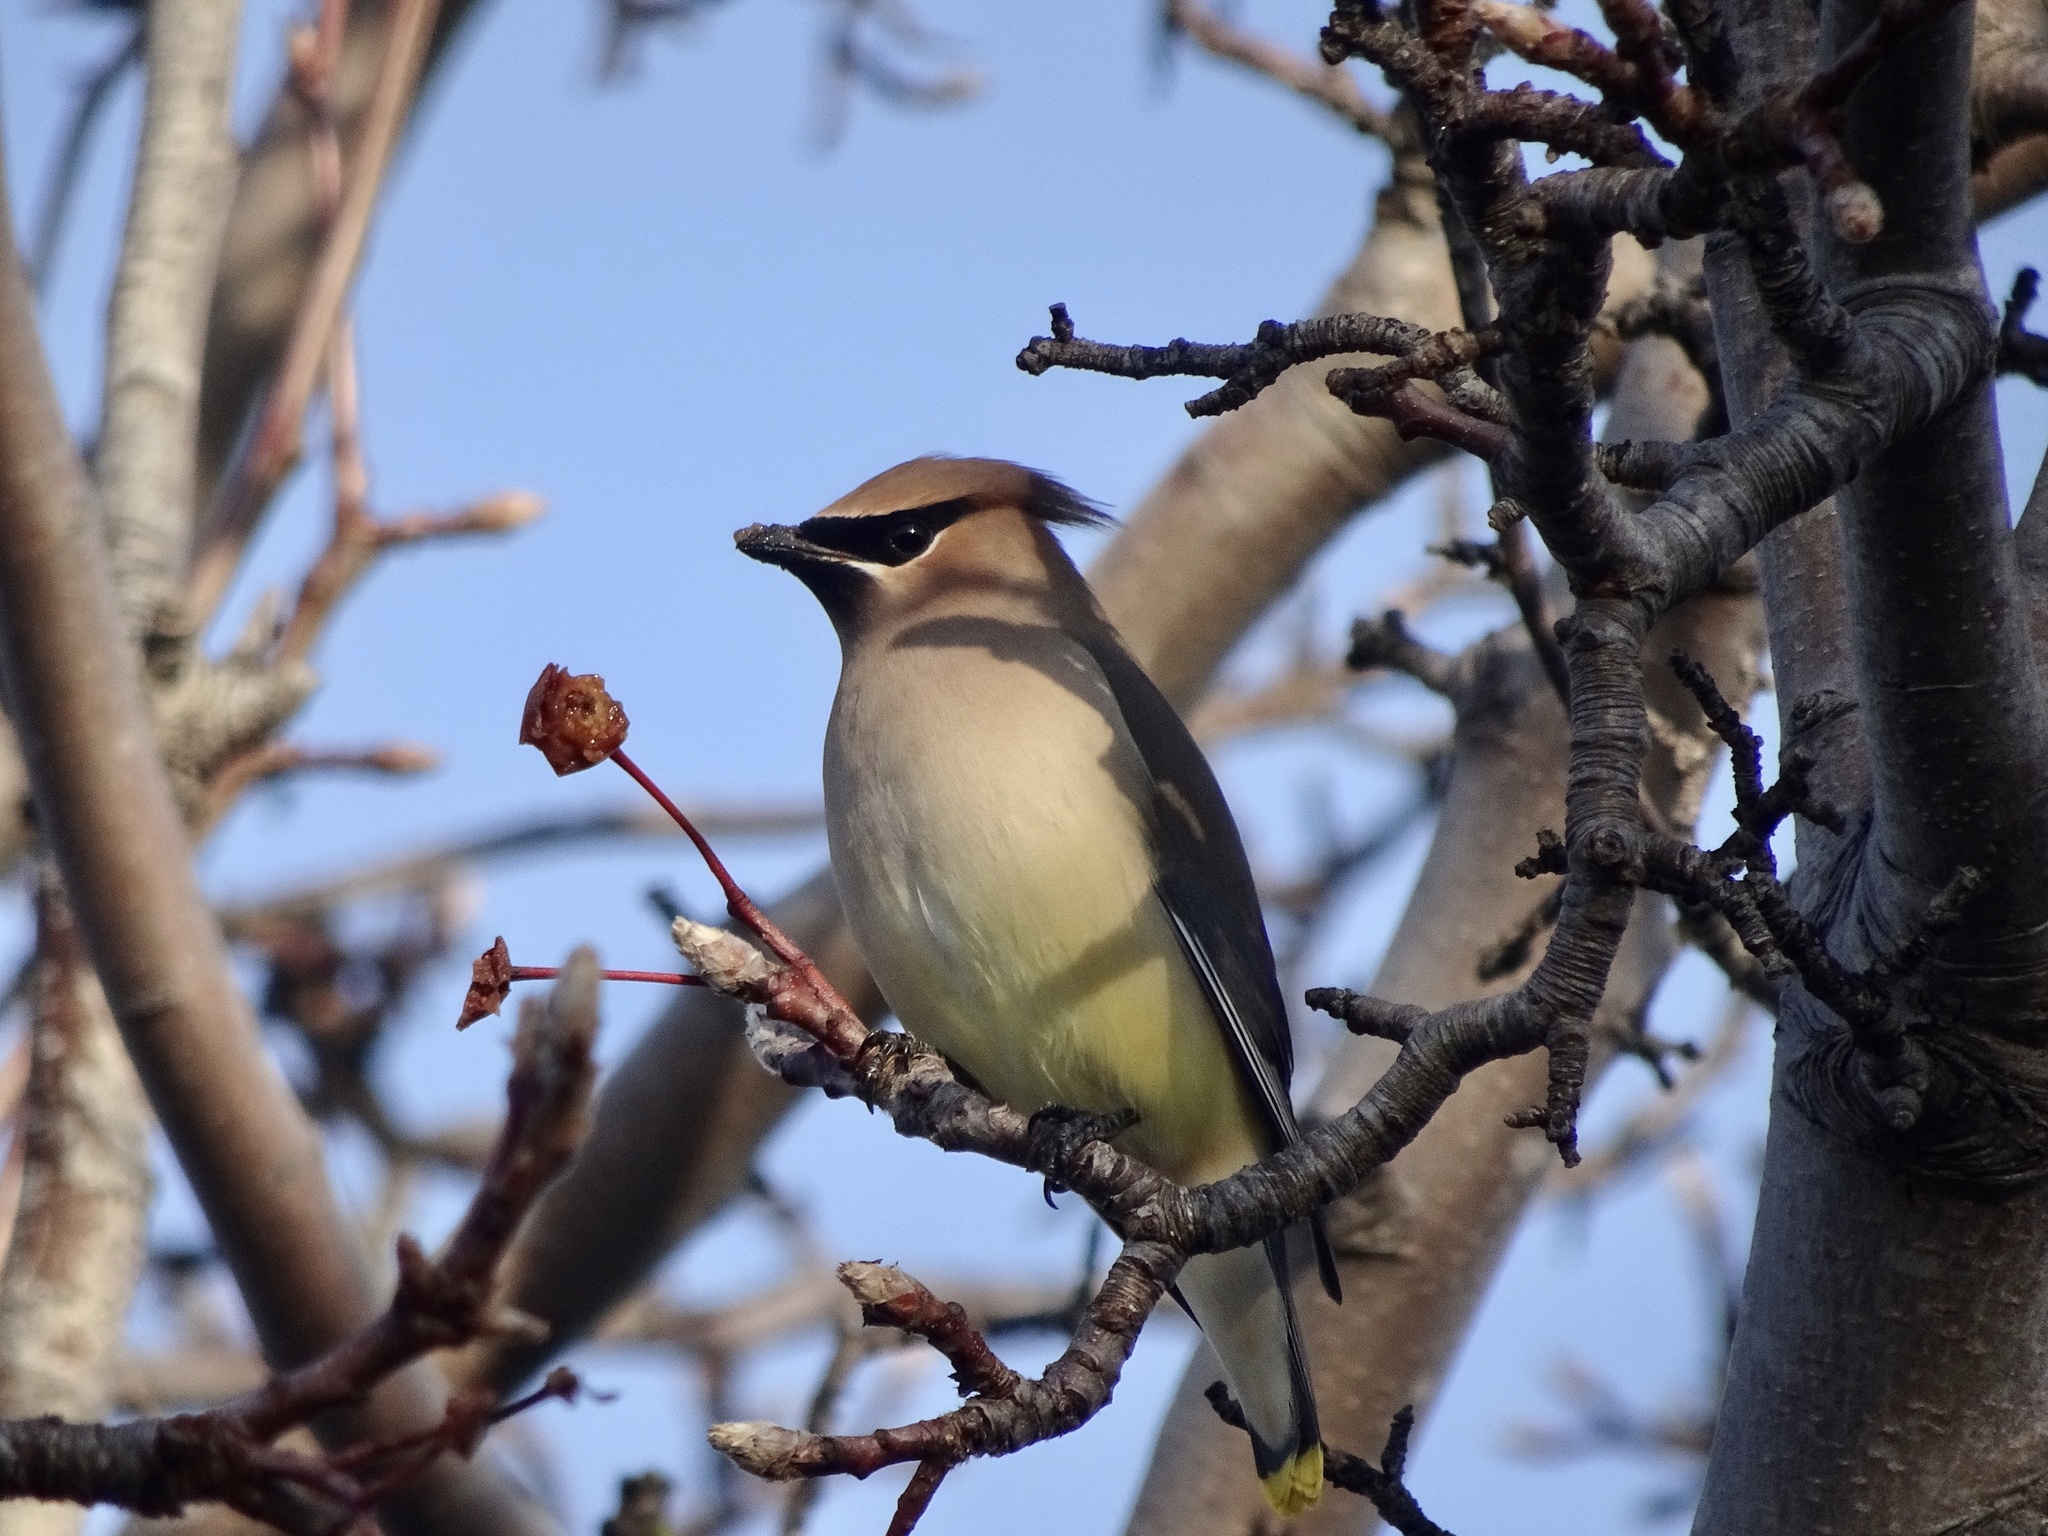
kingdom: Animalia
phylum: Chordata
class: Aves
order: Passeriformes
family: Bombycillidae
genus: Bombycilla
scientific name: Bombycilla cedrorum
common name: Cedar waxwing
